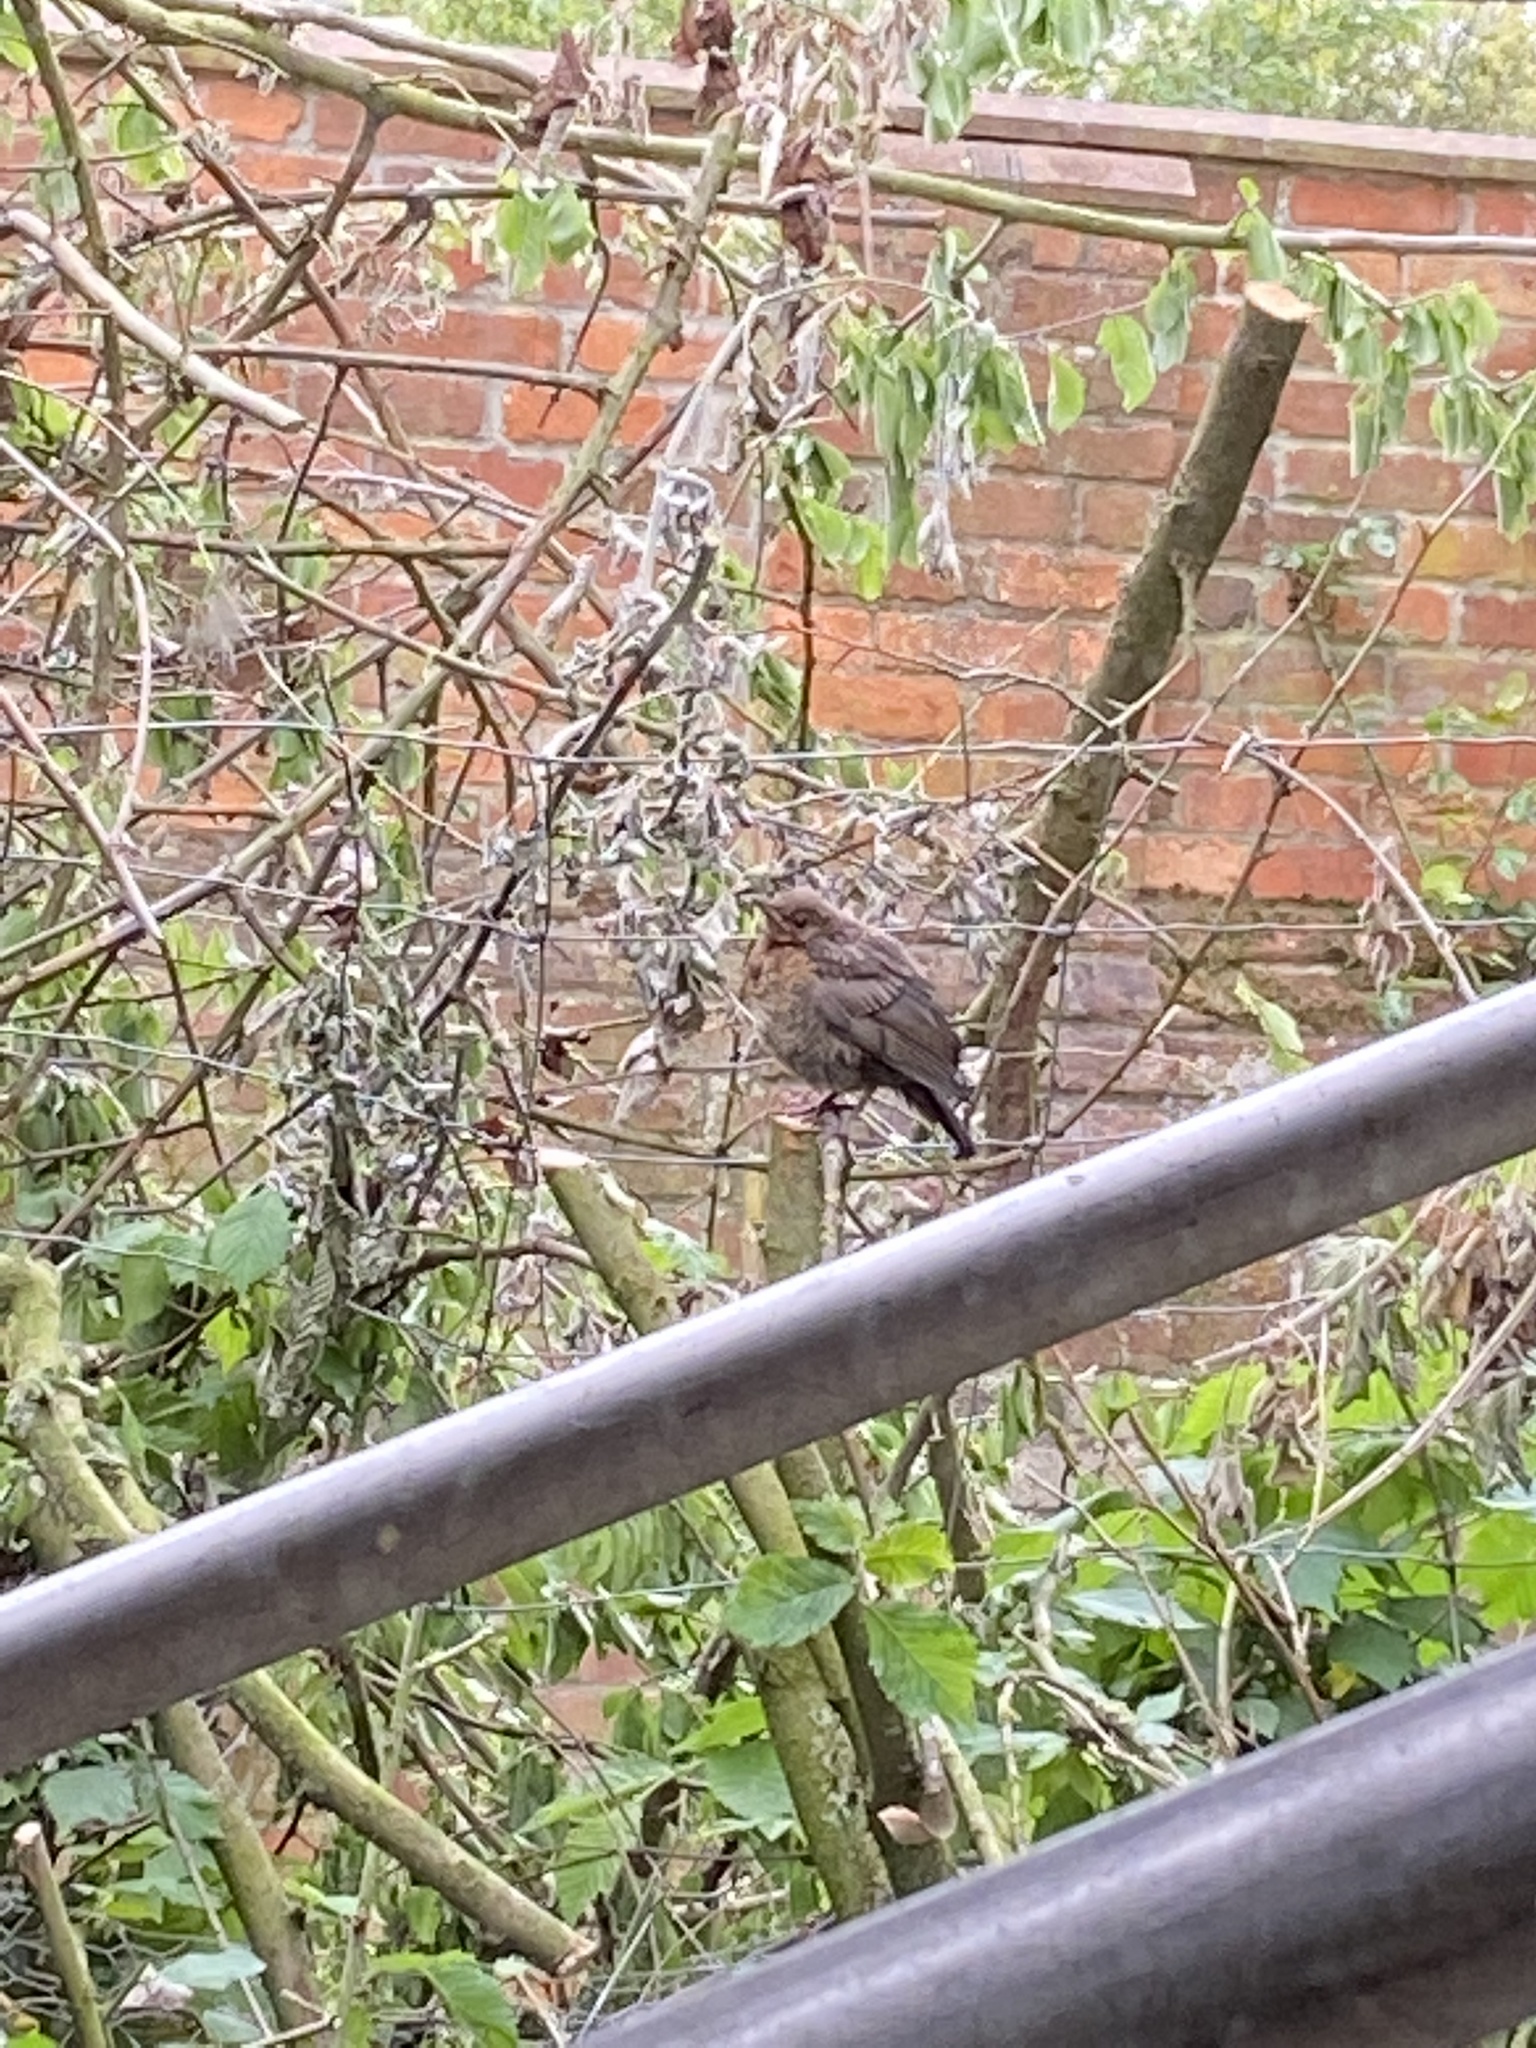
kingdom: Animalia
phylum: Chordata
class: Aves
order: Passeriformes
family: Turdidae
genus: Turdus
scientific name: Turdus merula
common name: Common blackbird
